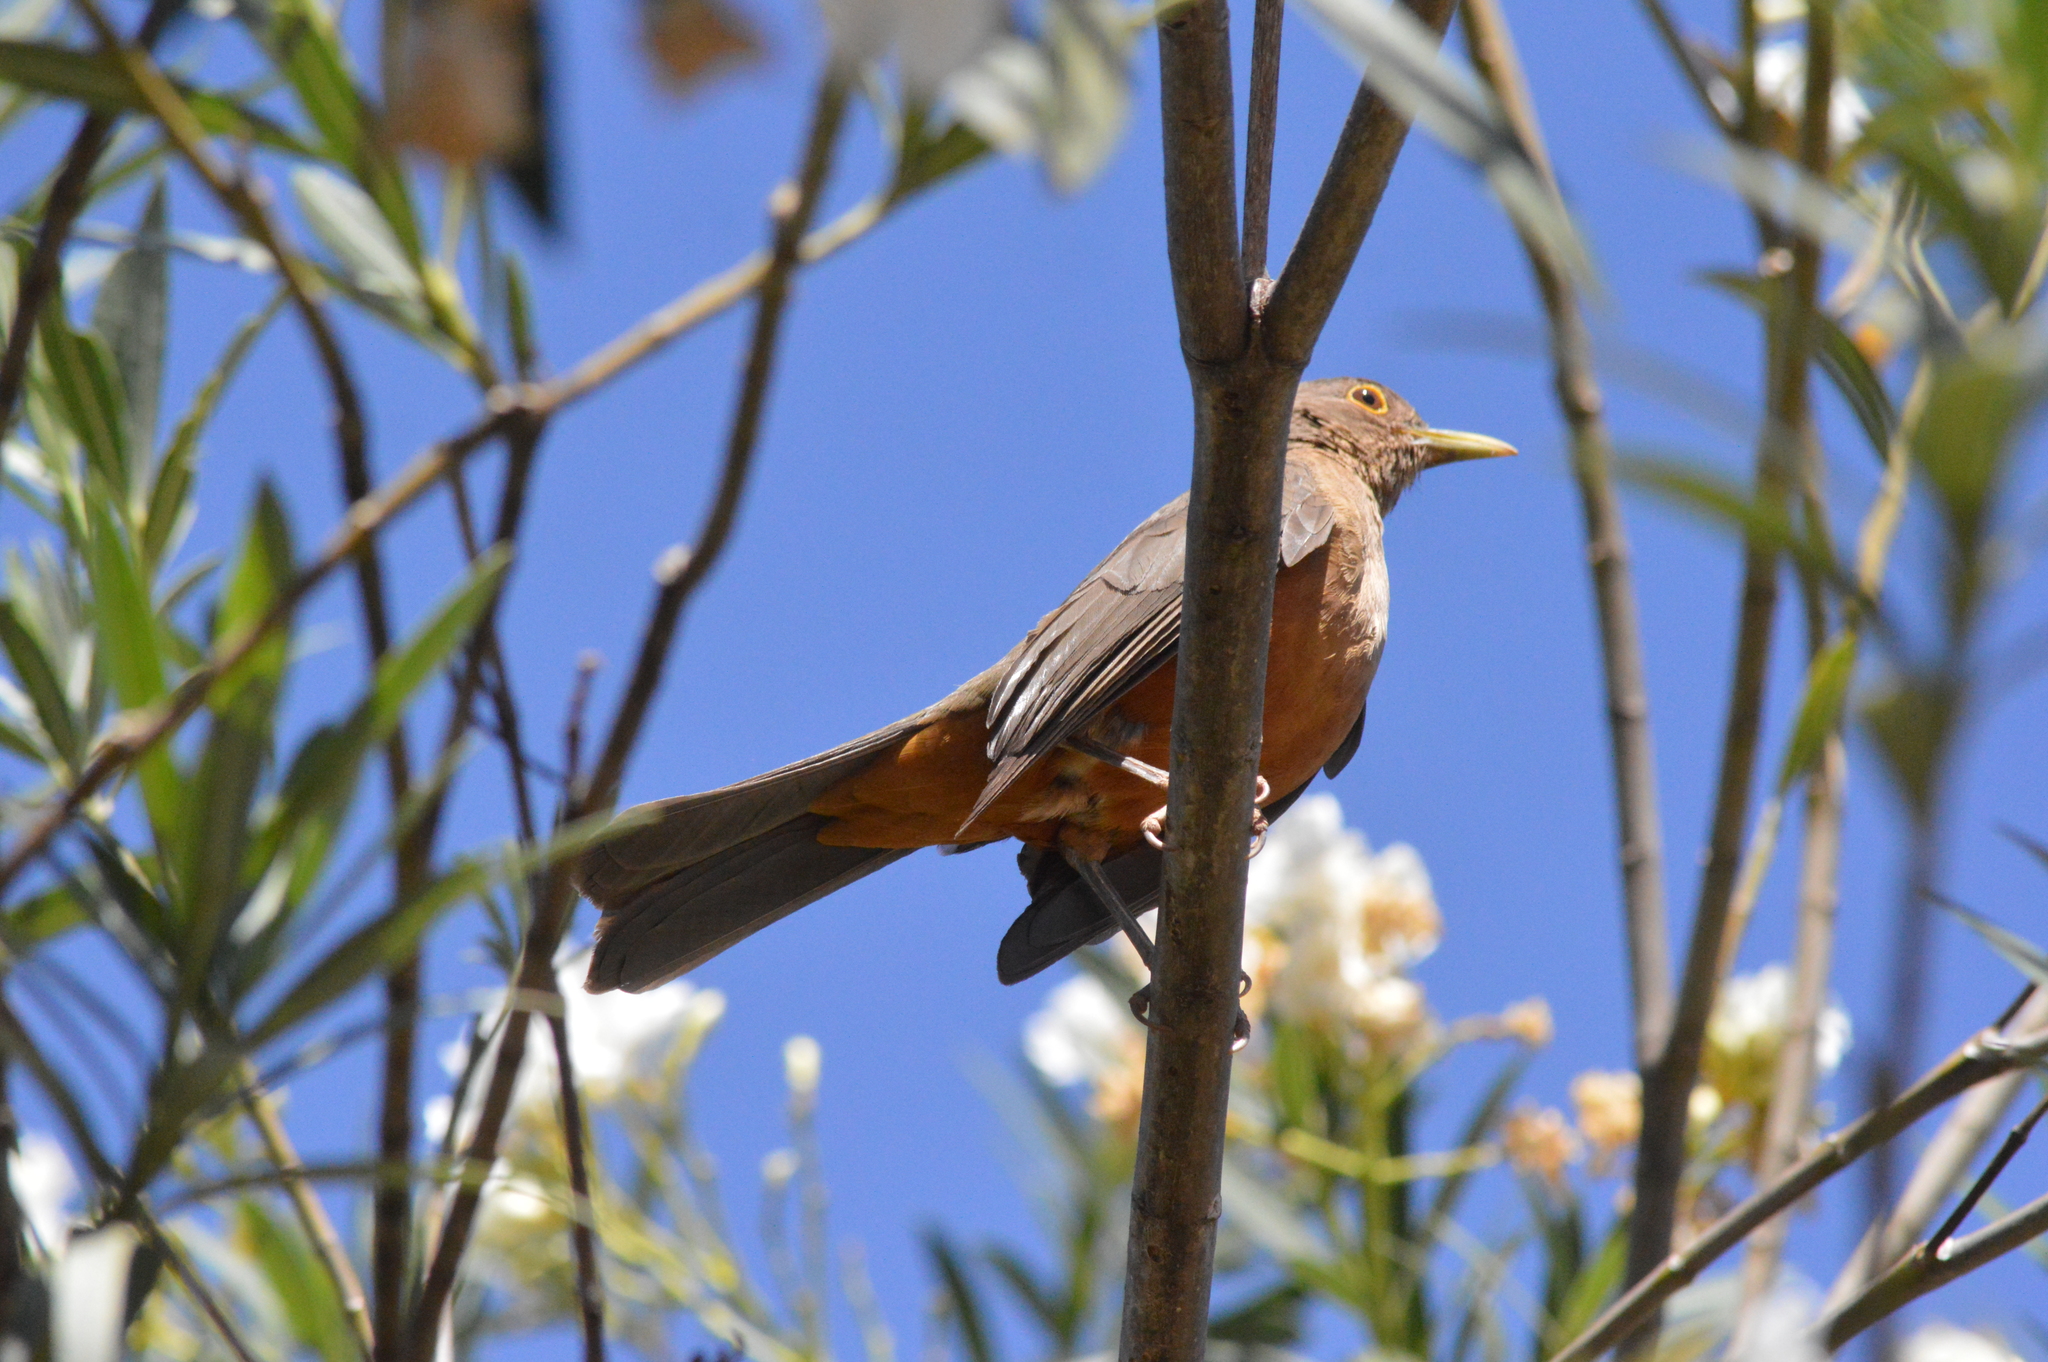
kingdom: Animalia
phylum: Chordata
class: Aves
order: Passeriformes
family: Turdidae
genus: Turdus
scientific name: Turdus rufiventris
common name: Rufous-bellied thrush
